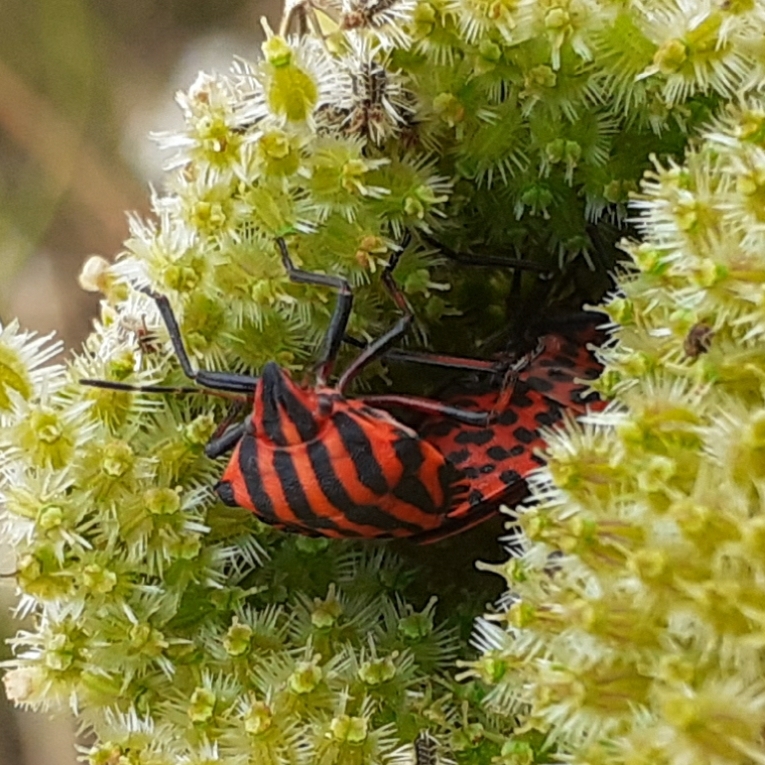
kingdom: Animalia
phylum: Arthropoda
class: Insecta
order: Hemiptera
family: Pentatomidae
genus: Graphosoma
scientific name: Graphosoma italicum
